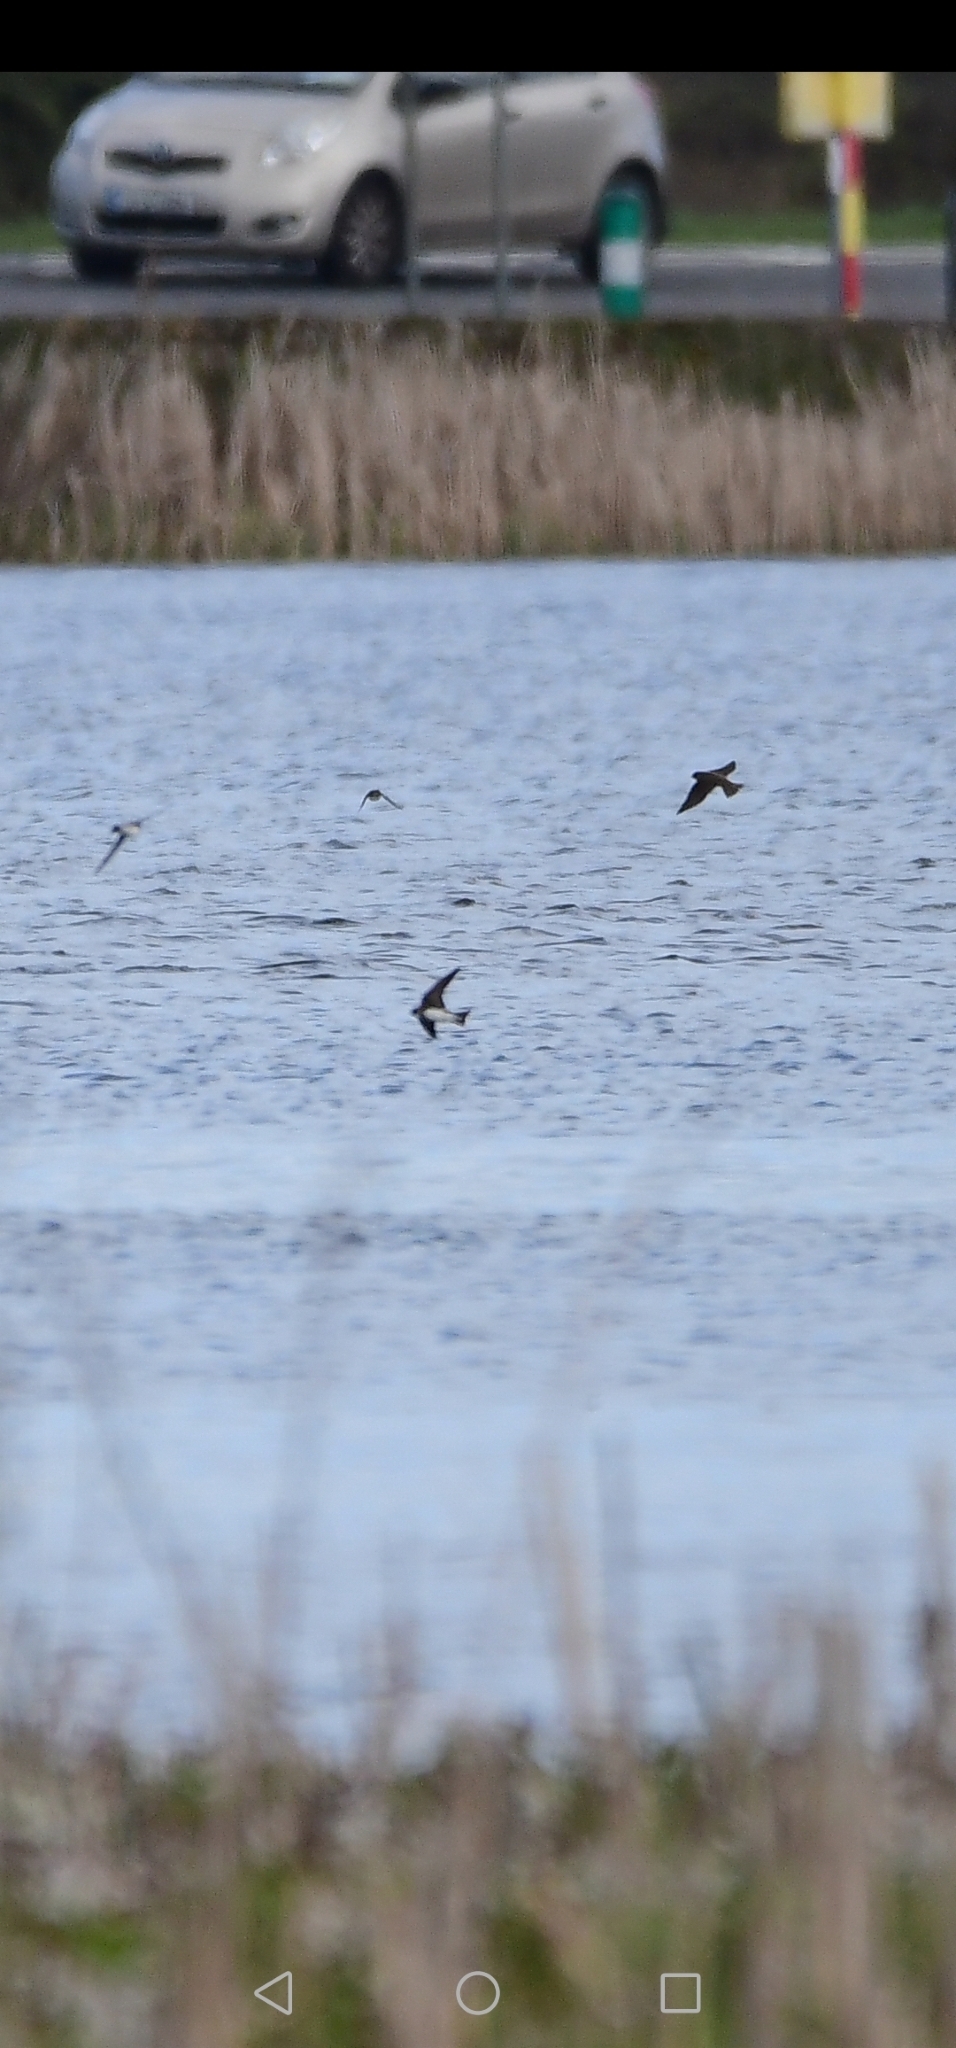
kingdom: Animalia
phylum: Chordata
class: Aves
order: Passeriformes
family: Hirundinidae
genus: Riparia
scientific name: Riparia riparia
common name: Sand martin
